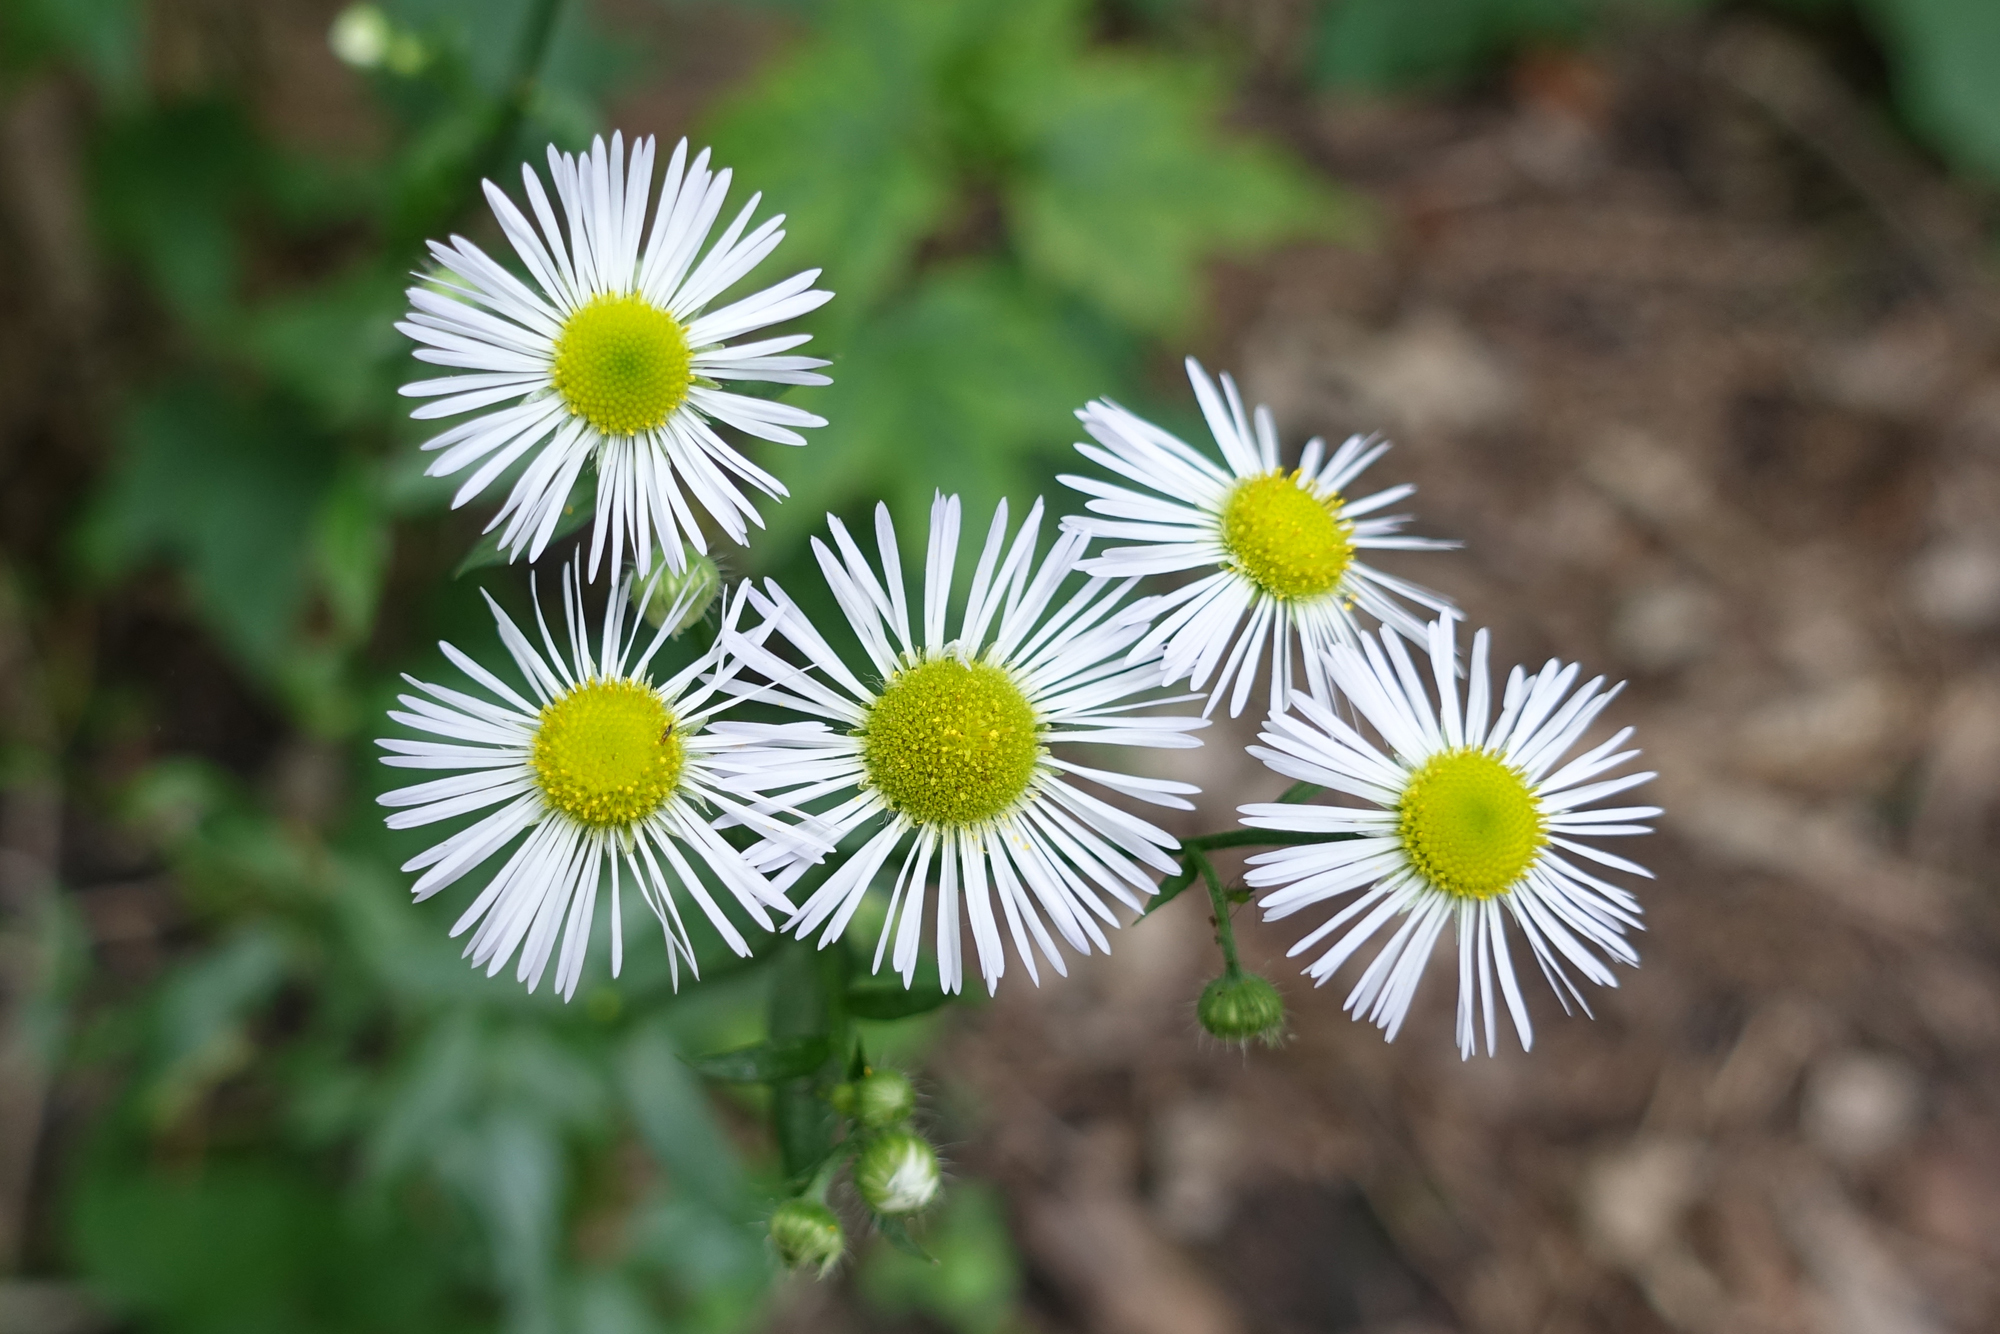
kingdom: Plantae
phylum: Tracheophyta
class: Magnoliopsida
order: Asterales
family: Asteraceae
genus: Erigeron
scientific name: Erigeron
